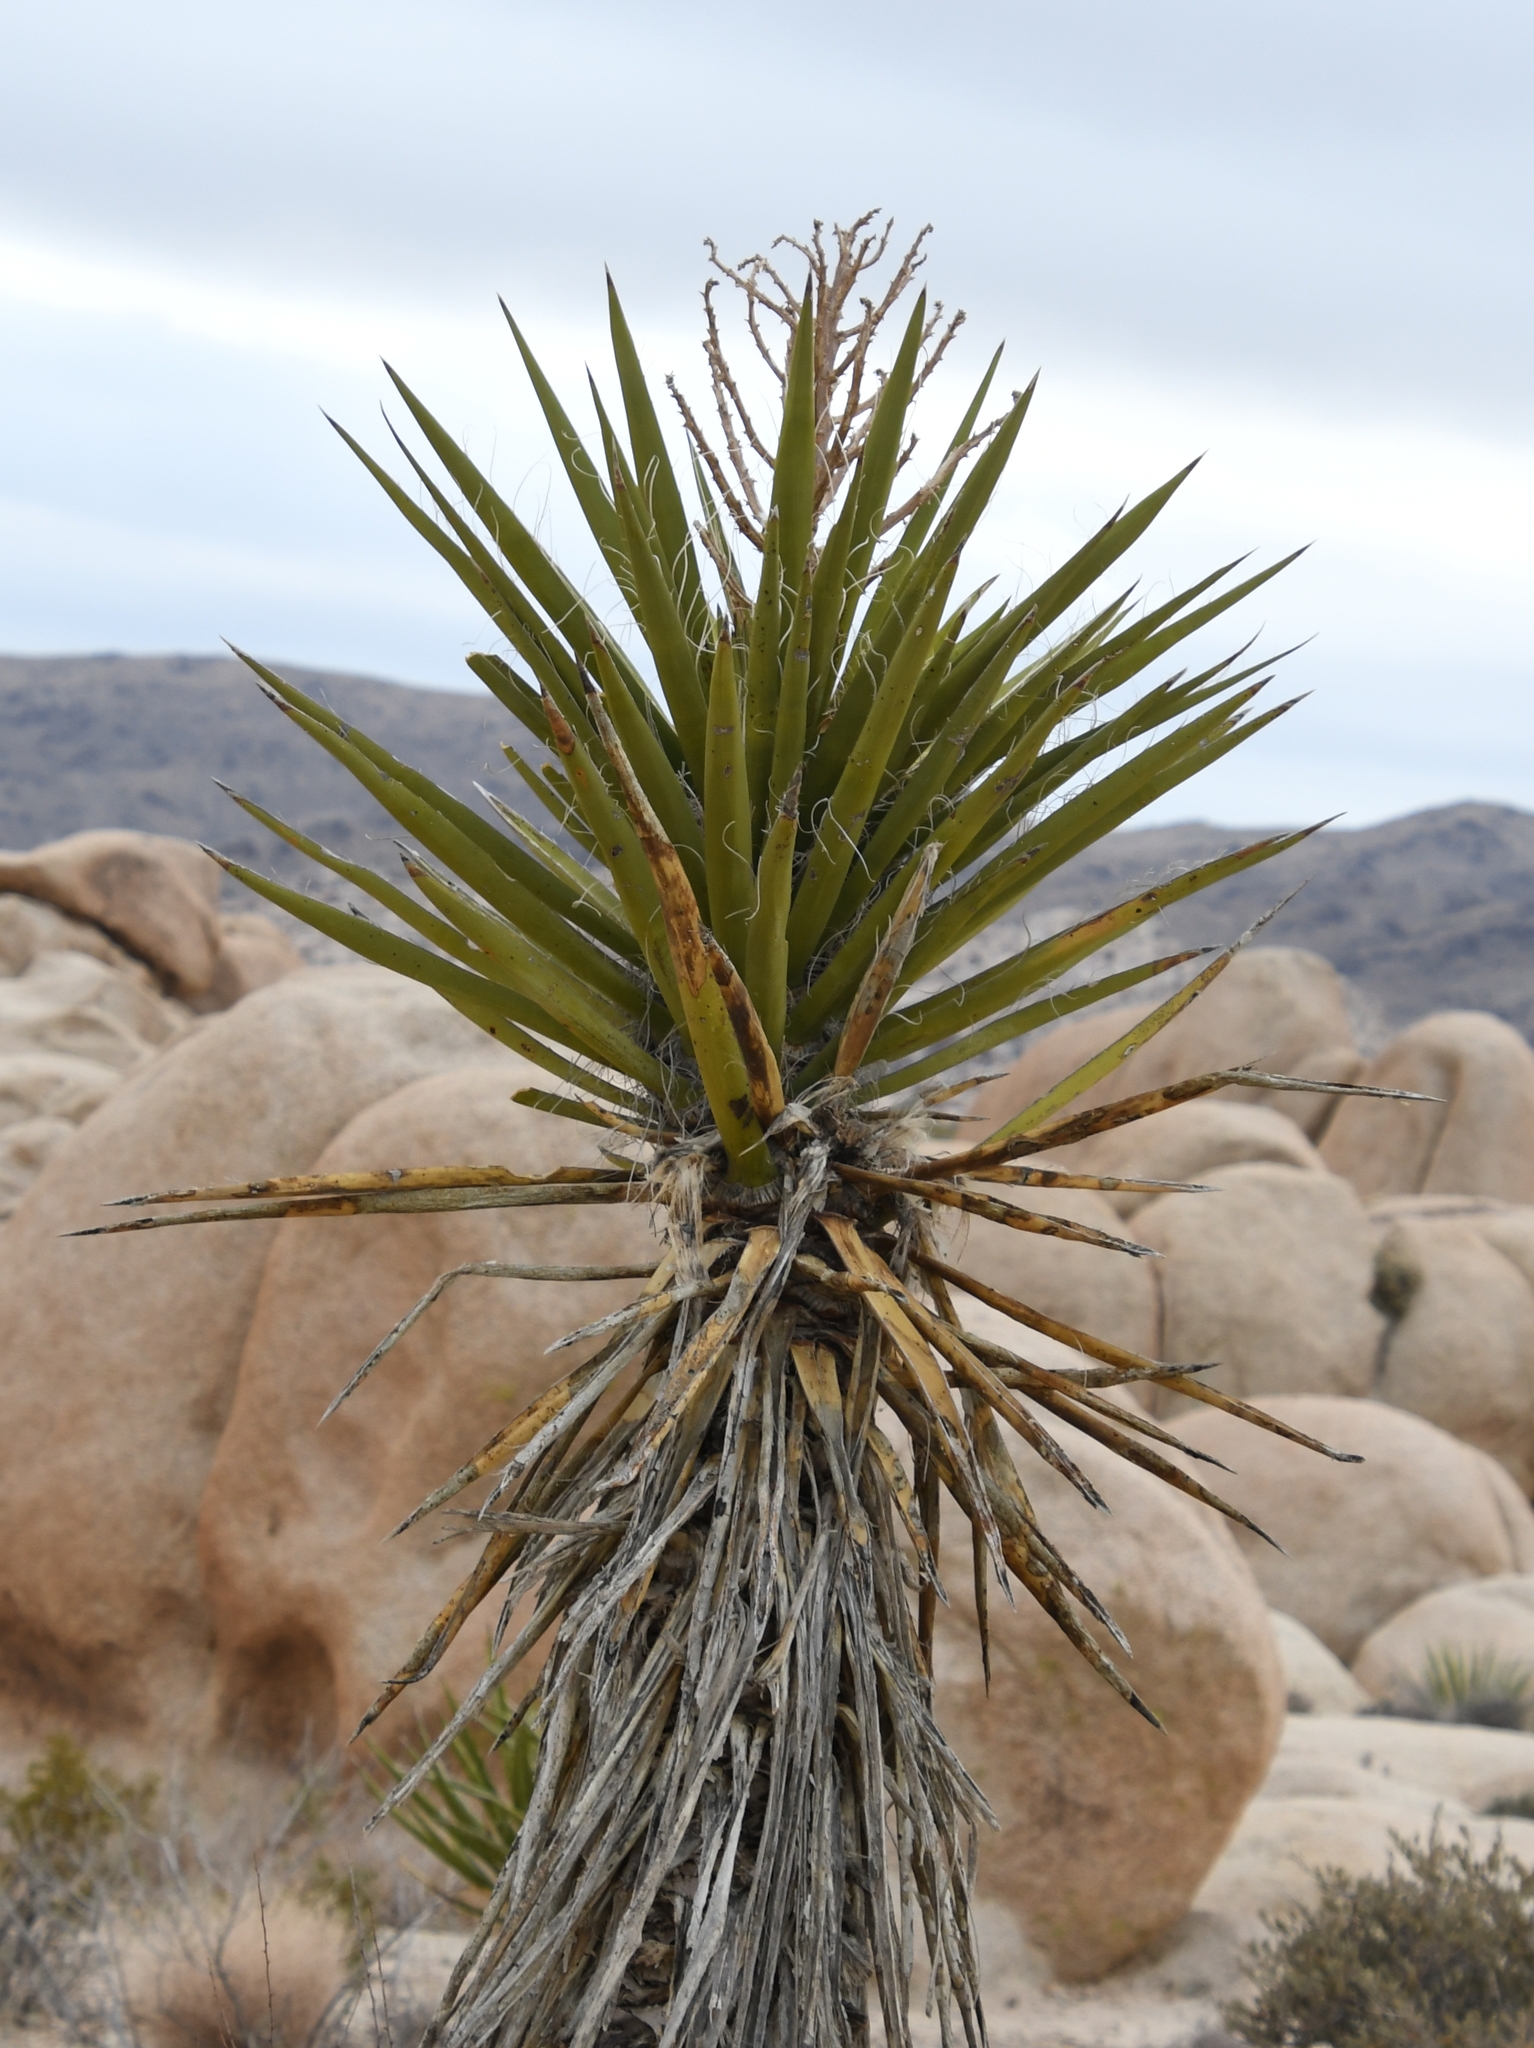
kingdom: Plantae
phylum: Tracheophyta
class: Liliopsida
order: Asparagales
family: Asparagaceae
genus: Yucca
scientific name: Yucca schidigera
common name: Mojave yucca
